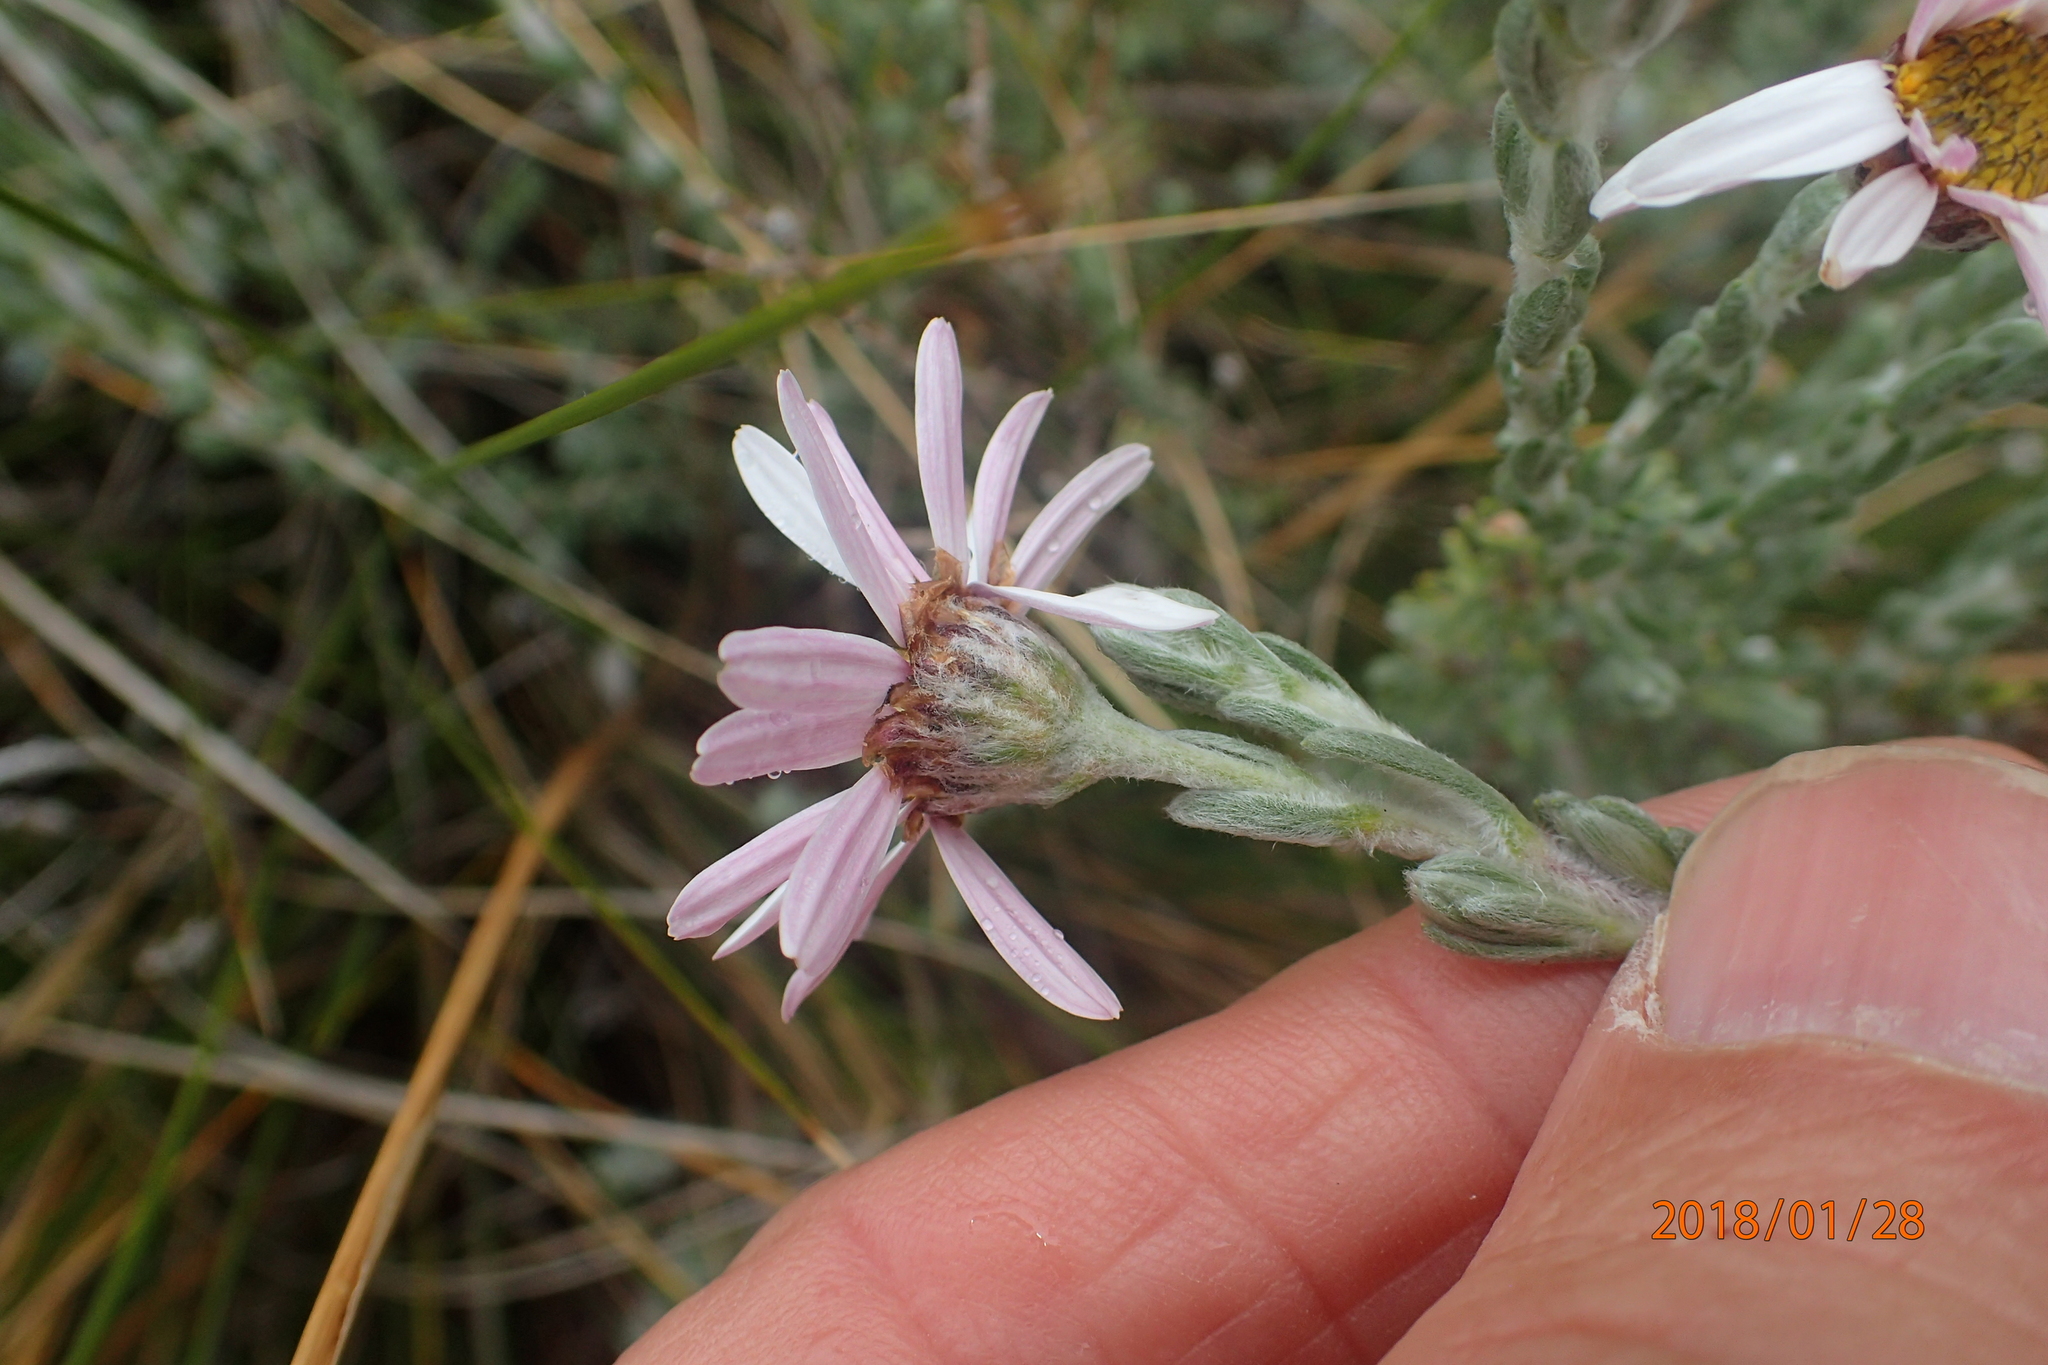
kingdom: Plantae
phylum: Tracheophyta
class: Magnoliopsida
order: Asterales
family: Asteraceae
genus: Eumorphia
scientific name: Eumorphia sericea
